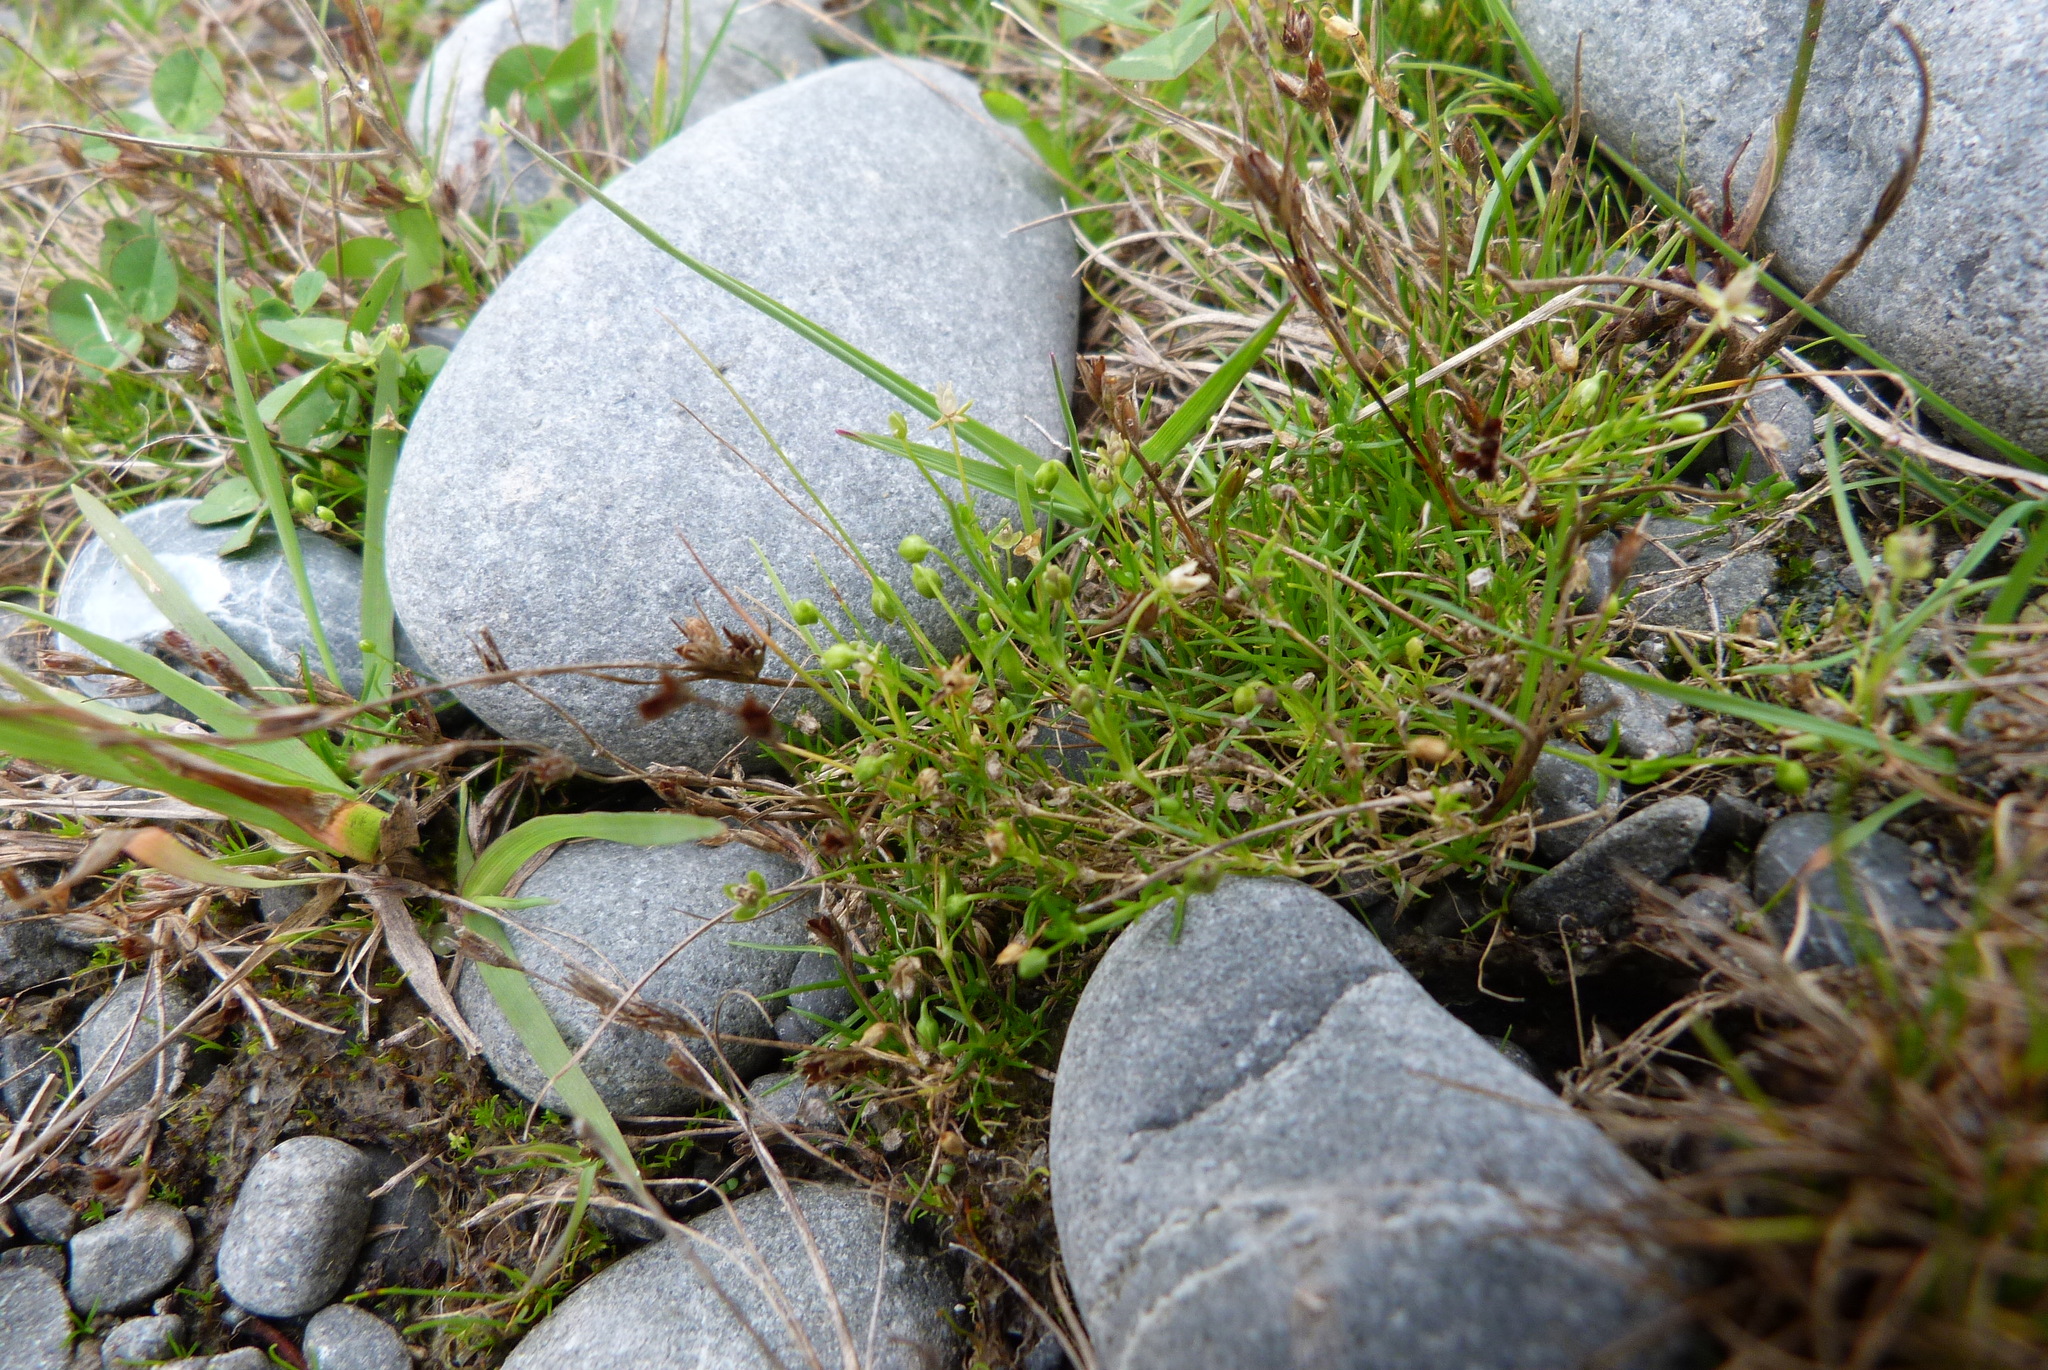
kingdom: Plantae
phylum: Tracheophyta
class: Magnoliopsida
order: Caryophyllales
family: Caryophyllaceae
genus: Sagina
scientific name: Sagina procumbens
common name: Procumbent pearlwort
